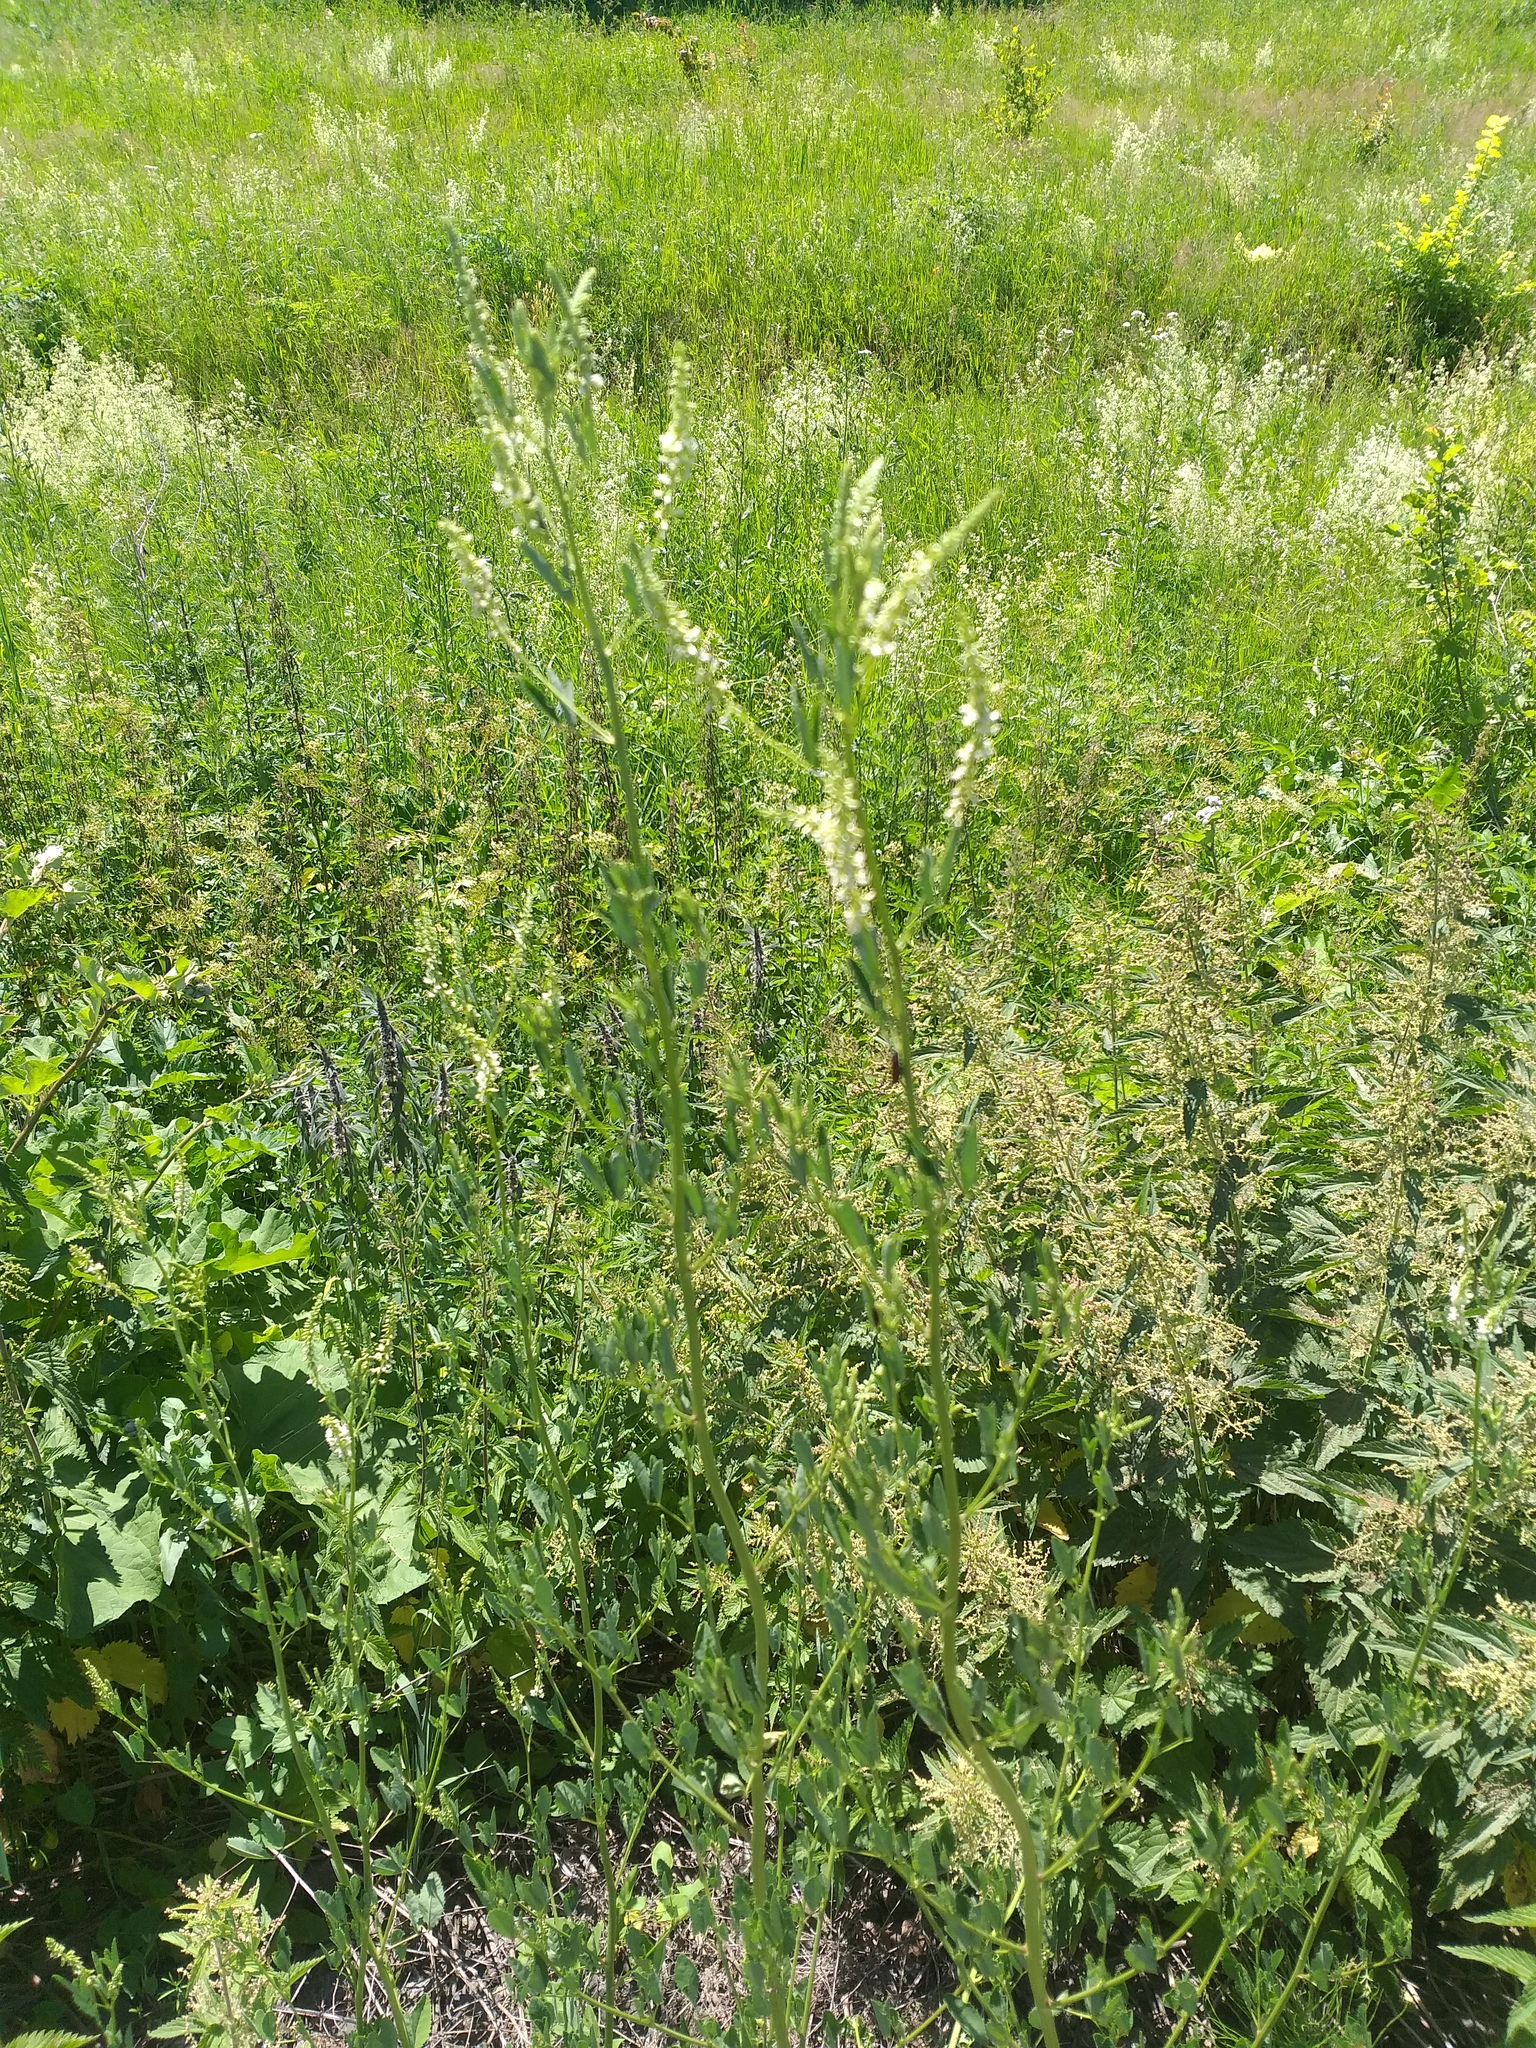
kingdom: Plantae
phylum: Tracheophyta
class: Magnoliopsida
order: Fabales
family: Fabaceae
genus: Melilotus
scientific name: Melilotus albus
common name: White melilot
